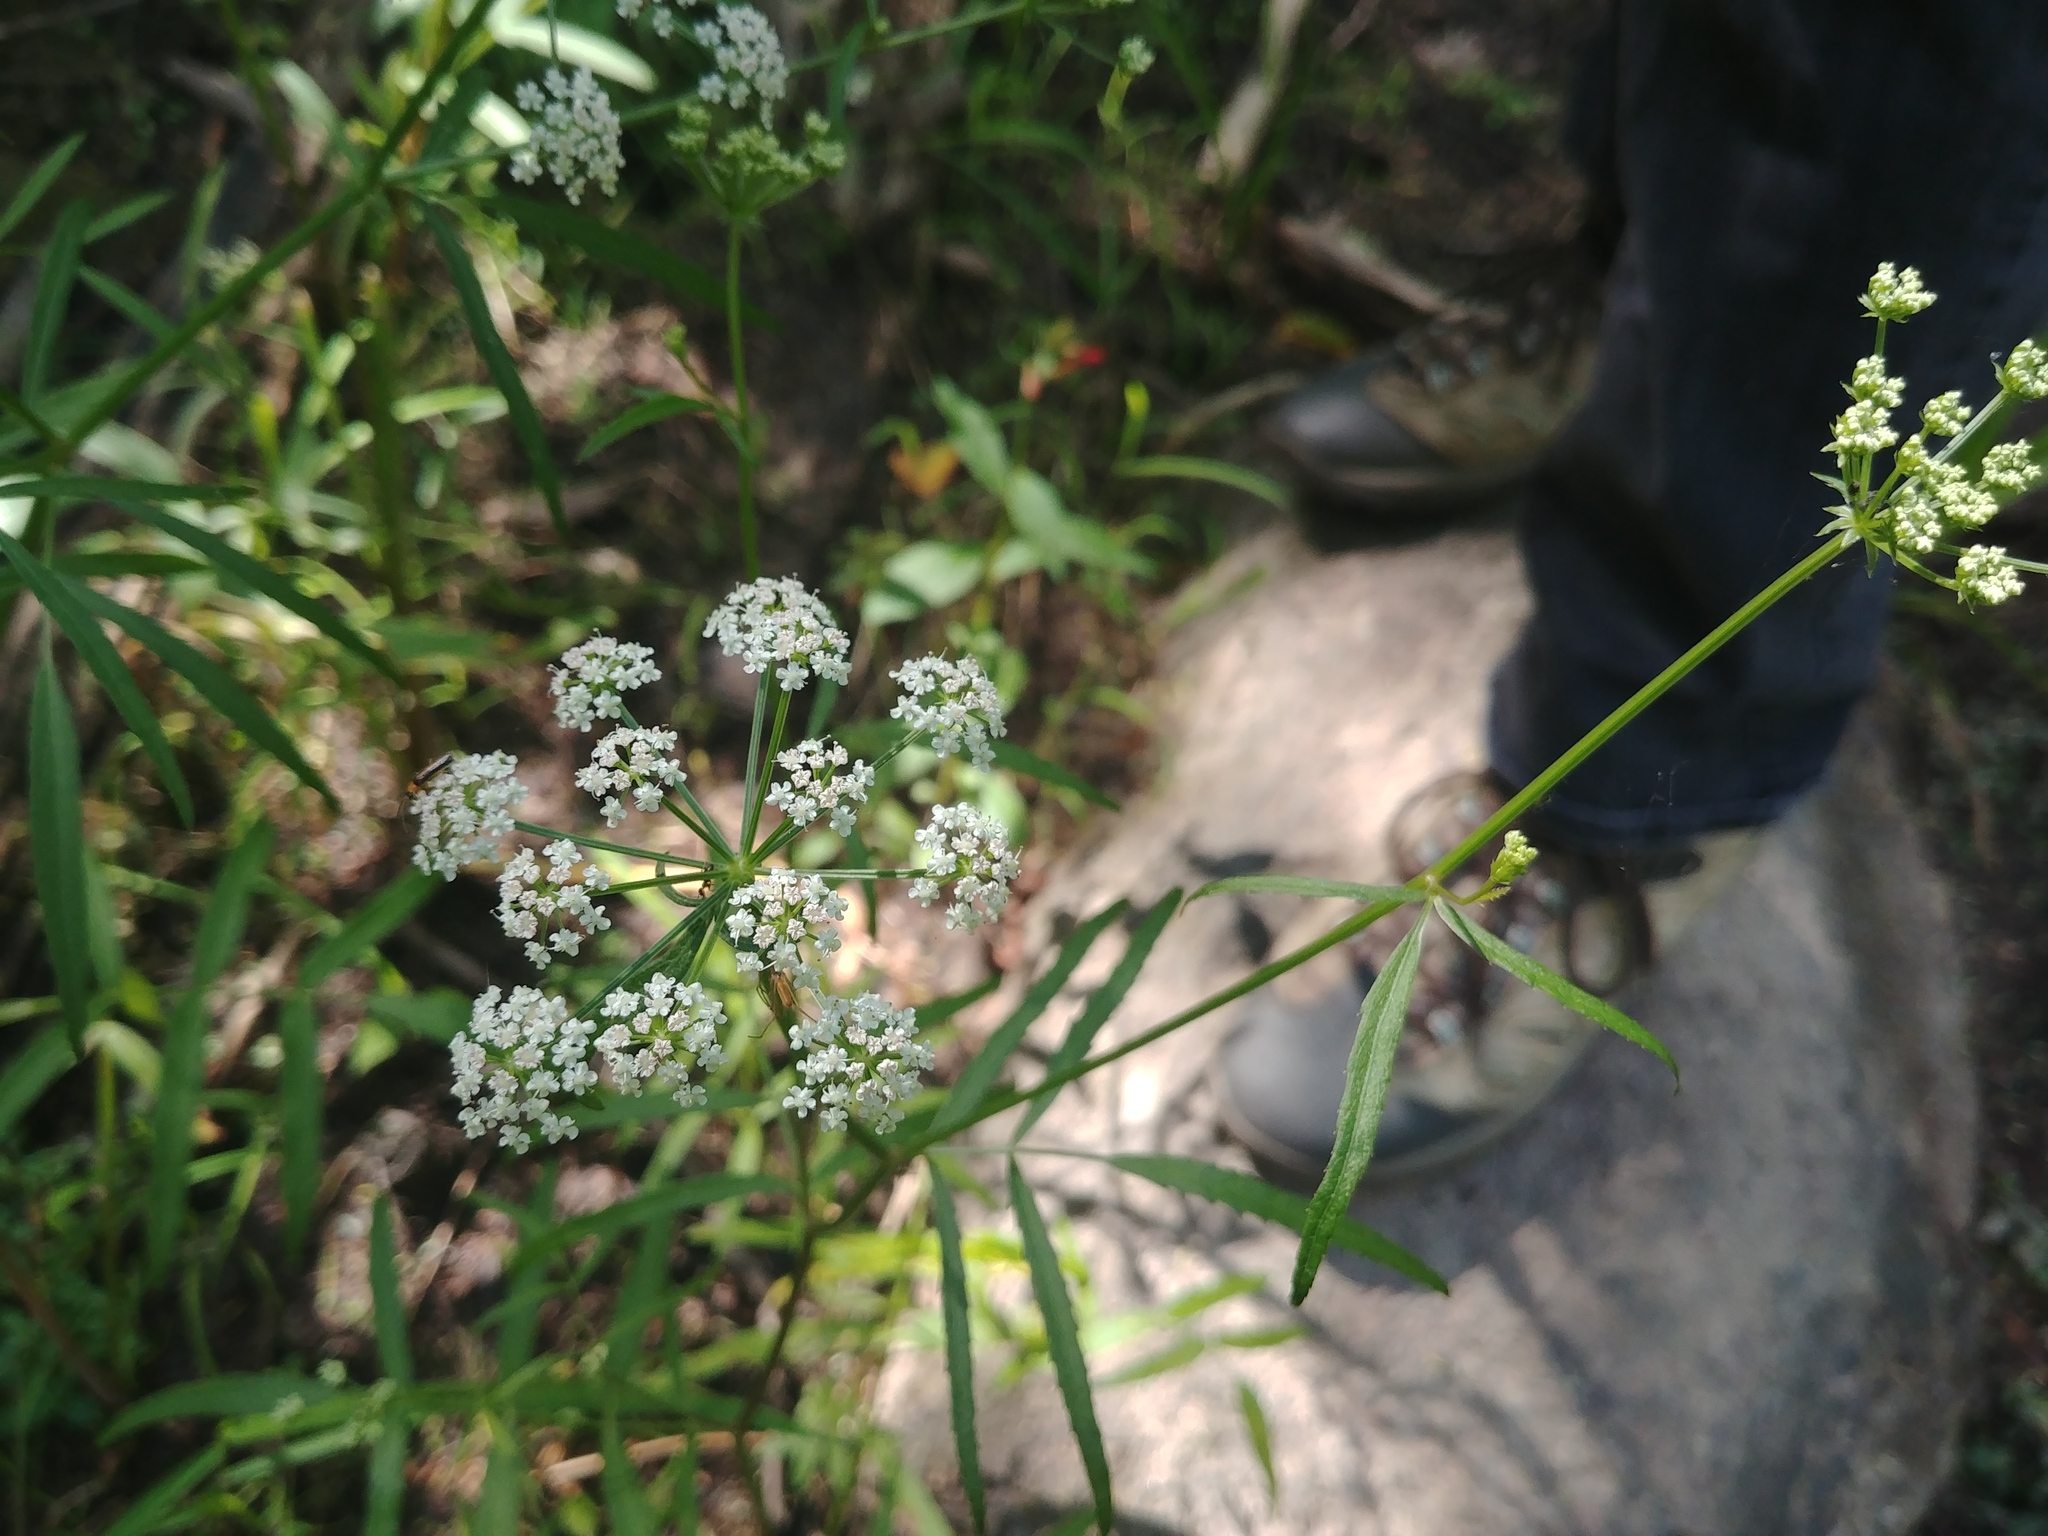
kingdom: Plantae
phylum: Tracheophyta
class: Magnoliopsida
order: Apiales
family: Apiaceae
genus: Sium
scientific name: Sium suave
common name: Hemlock water-parsnip
